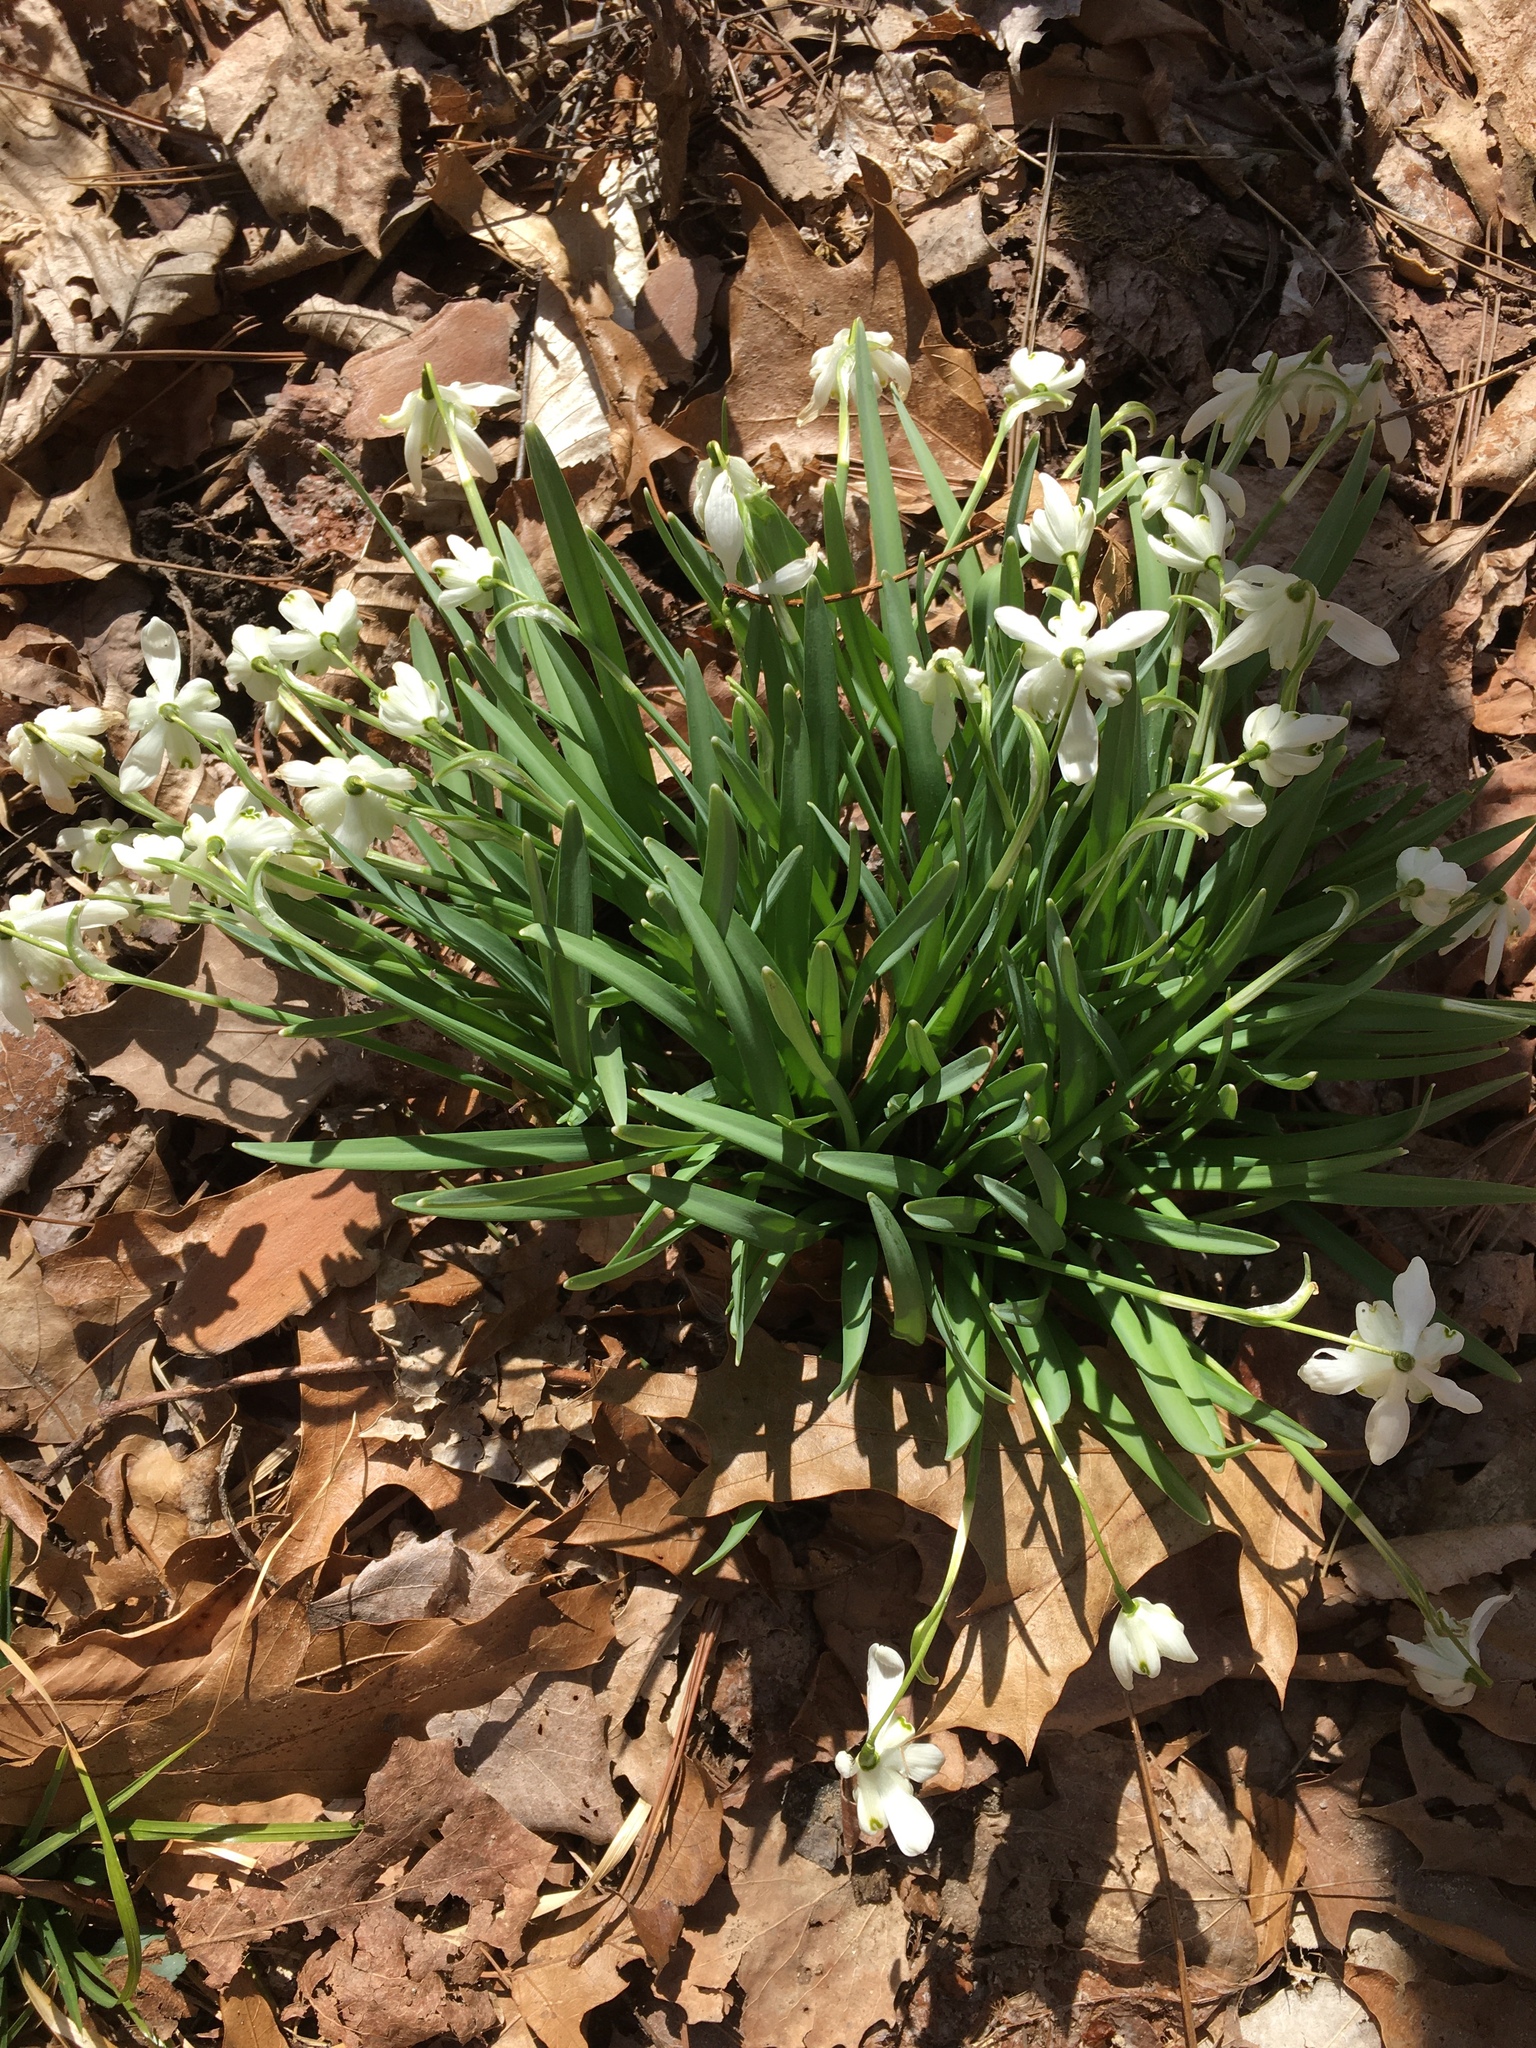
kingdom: Plantae
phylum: Tracheophyta
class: Liliopsida
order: Asparagales
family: Amaryllidaceae
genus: Galanthus
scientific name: Galanthus nivalis
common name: Snowdrop
